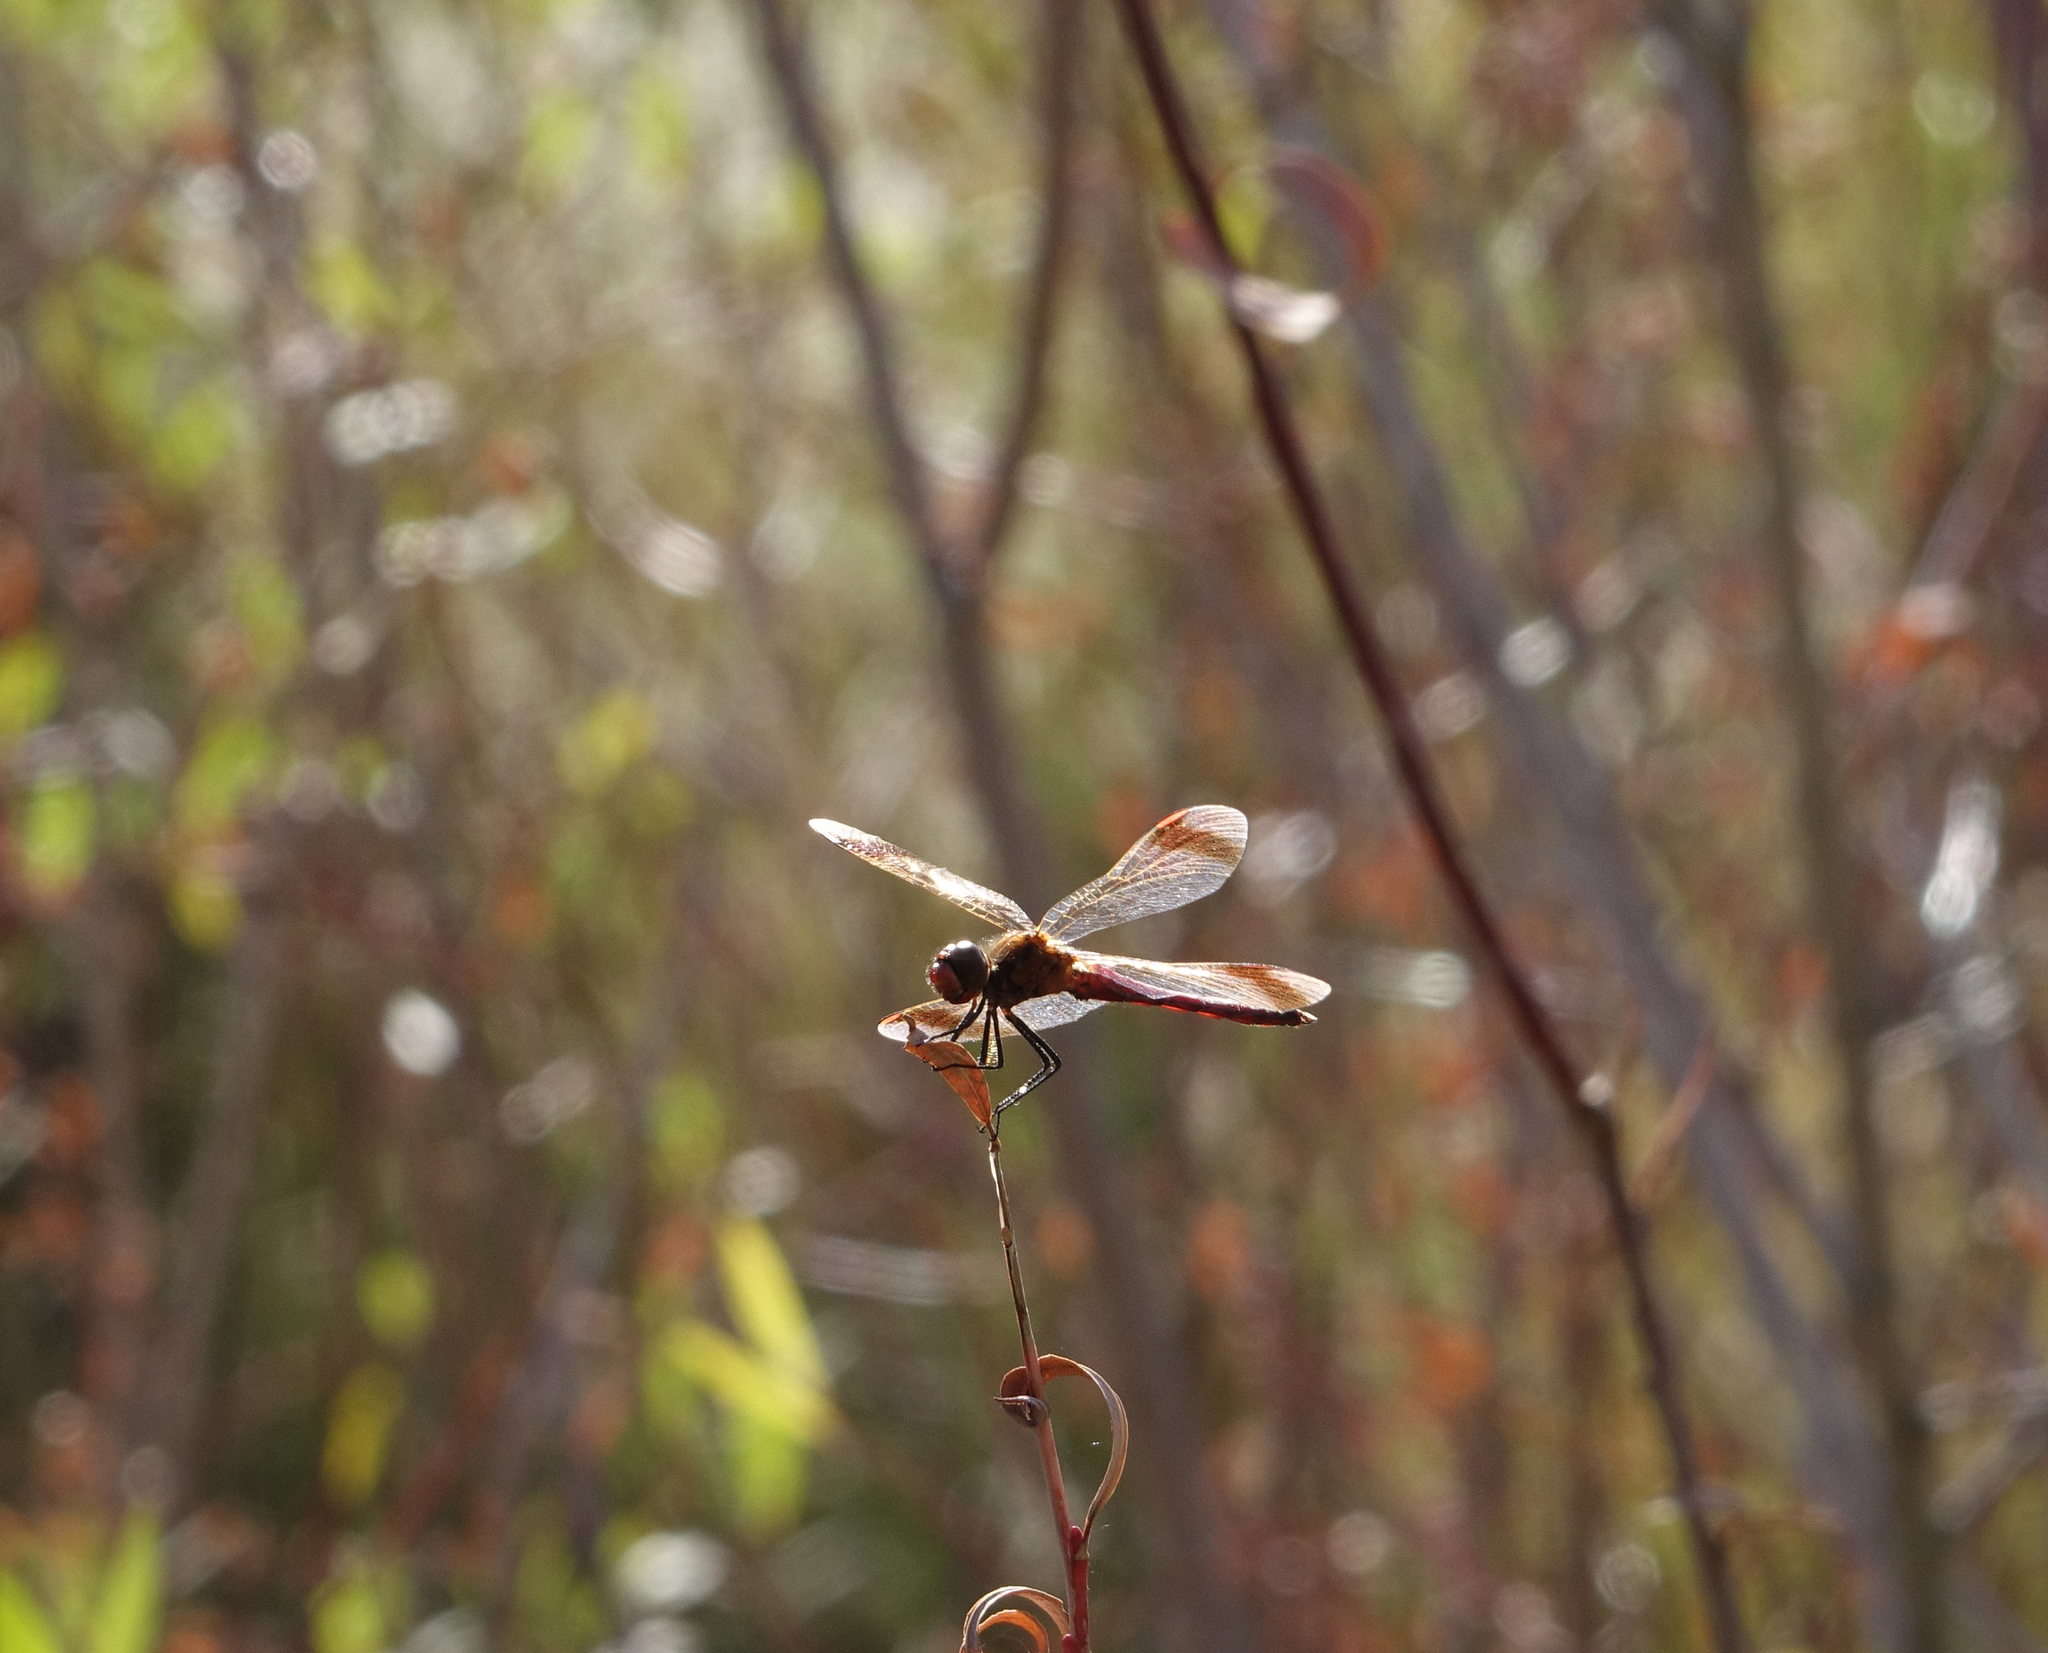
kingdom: Animalia
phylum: Arthropoda
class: Insecta
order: Odonata
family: Libellulidae
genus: Sympetrum
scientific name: Sympetrum pedemontanum
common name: Banded darter
